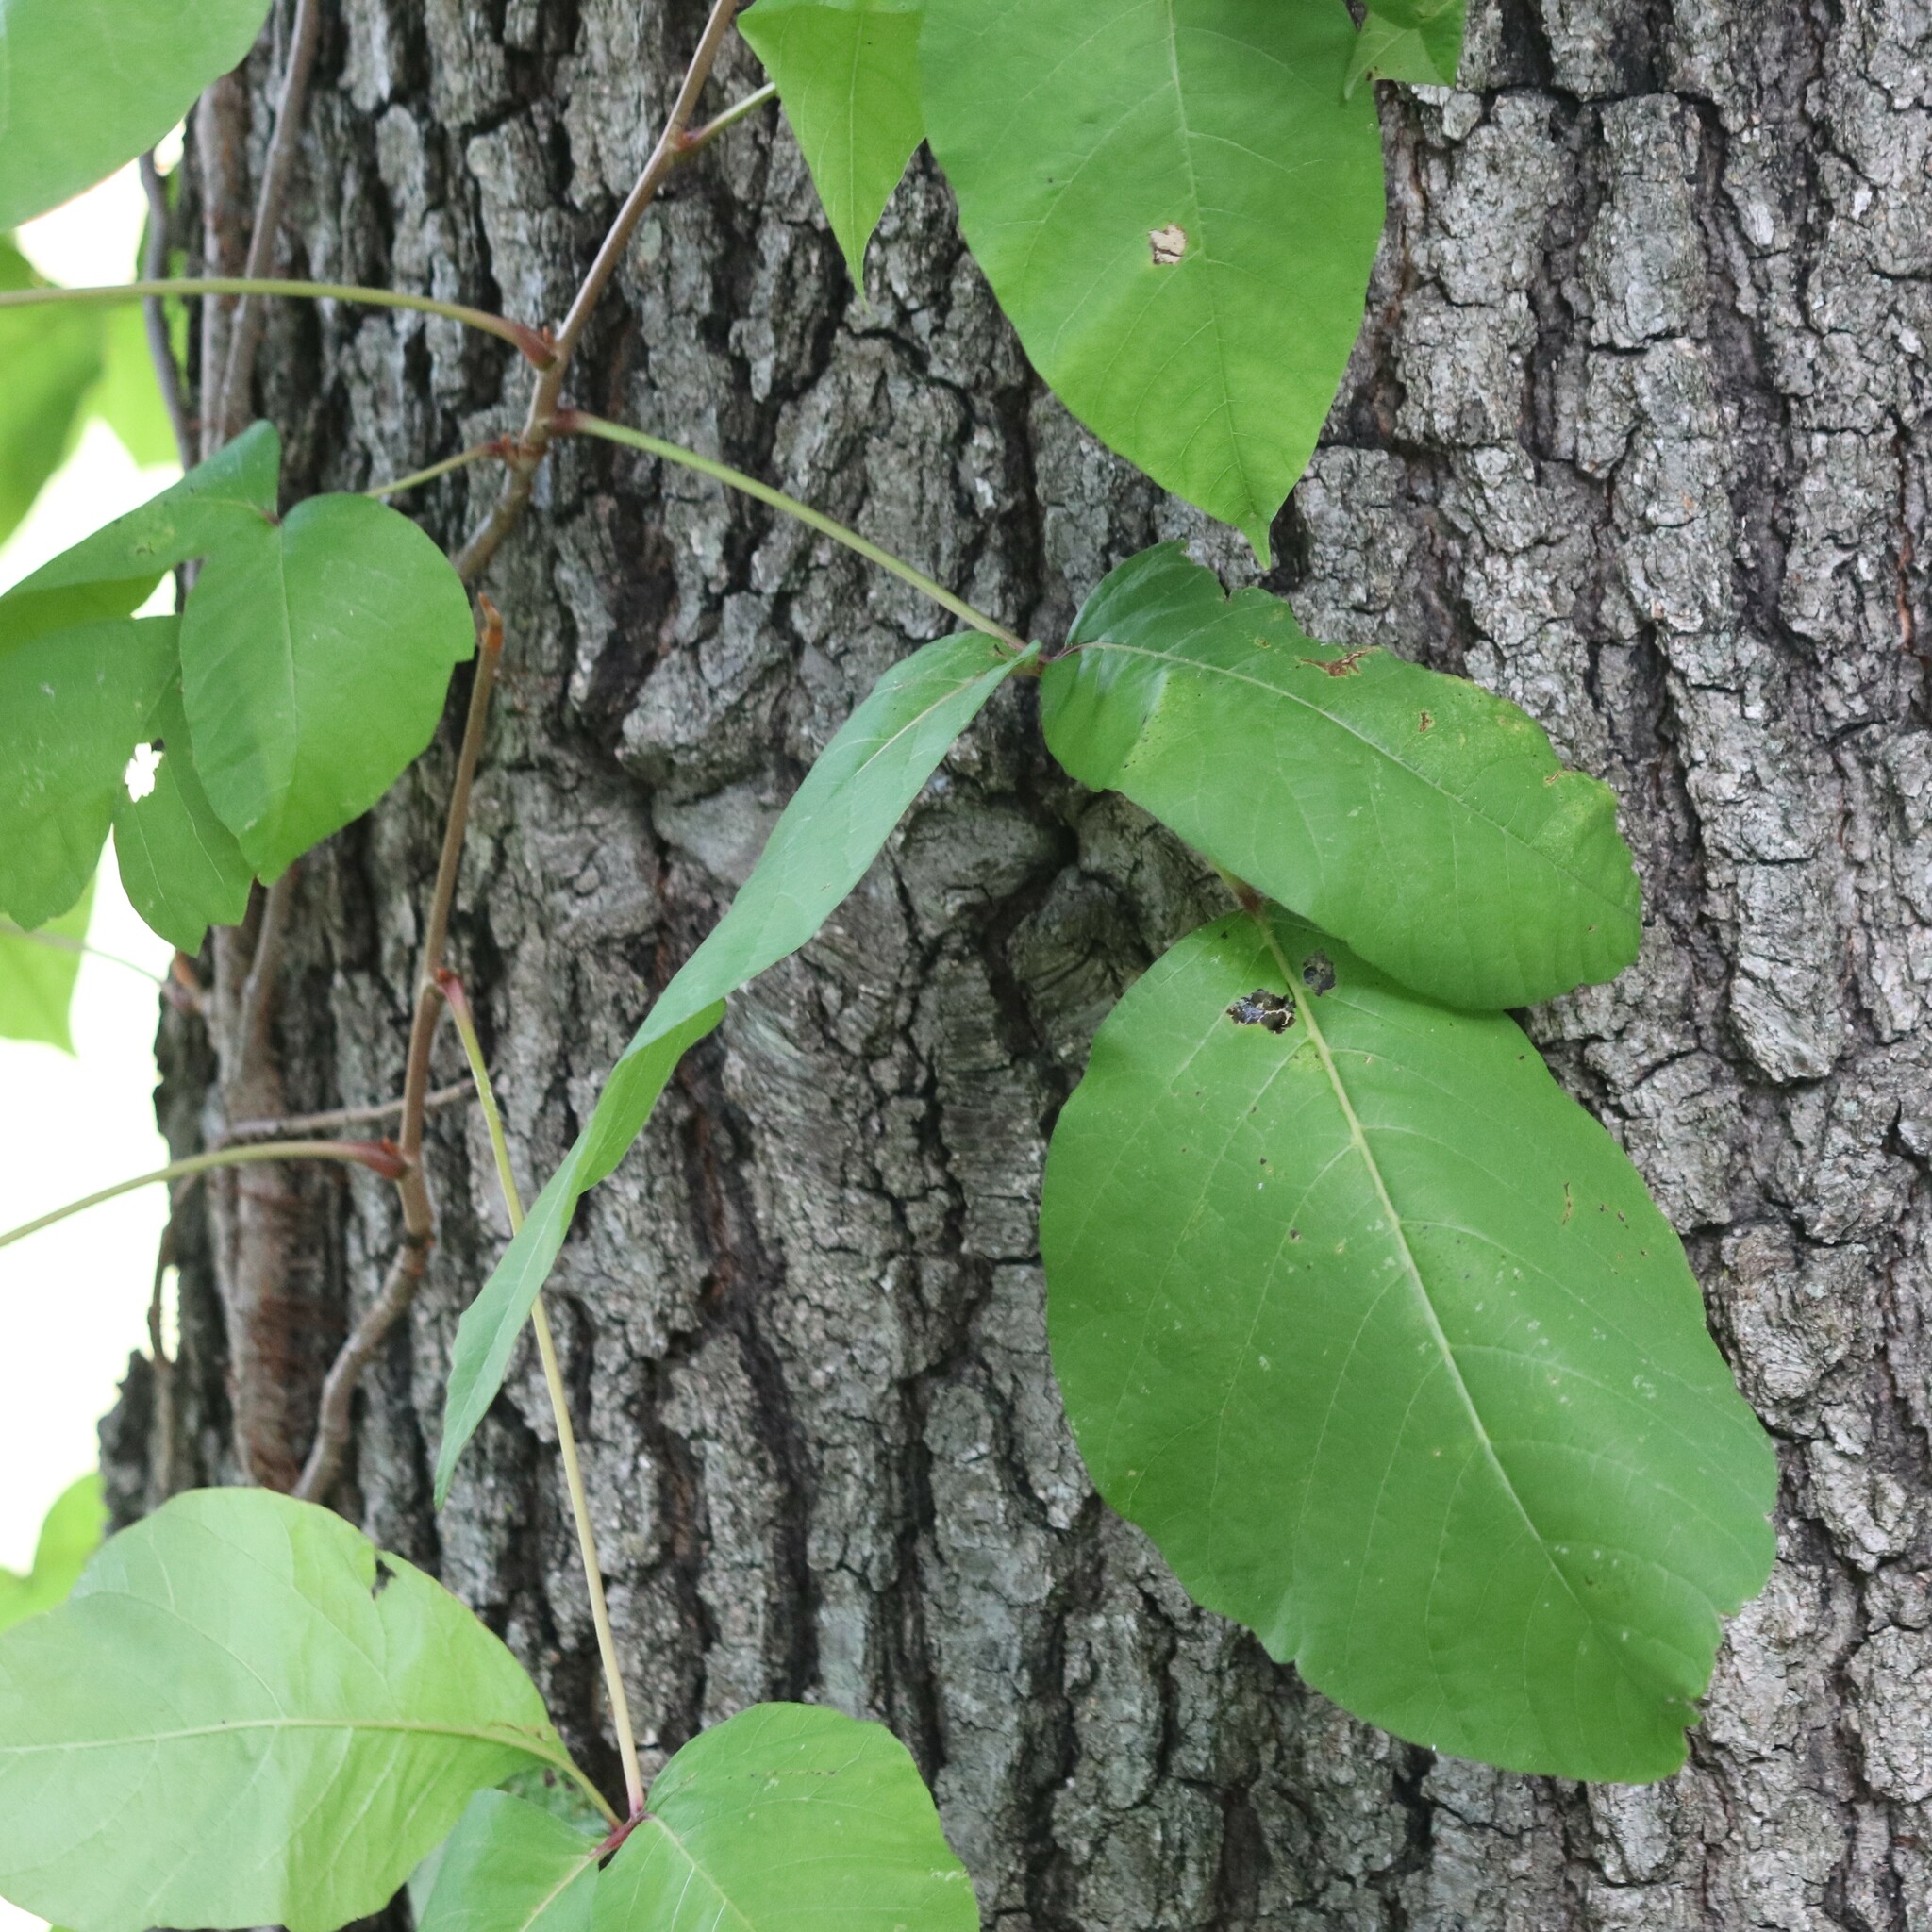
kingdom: Plantae
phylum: Tracheophyta
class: Magnoliopsida
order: Sapindales
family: Anacardiaceae
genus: Toxicodendron
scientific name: Toxicodendron radicans
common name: Poison ivy
